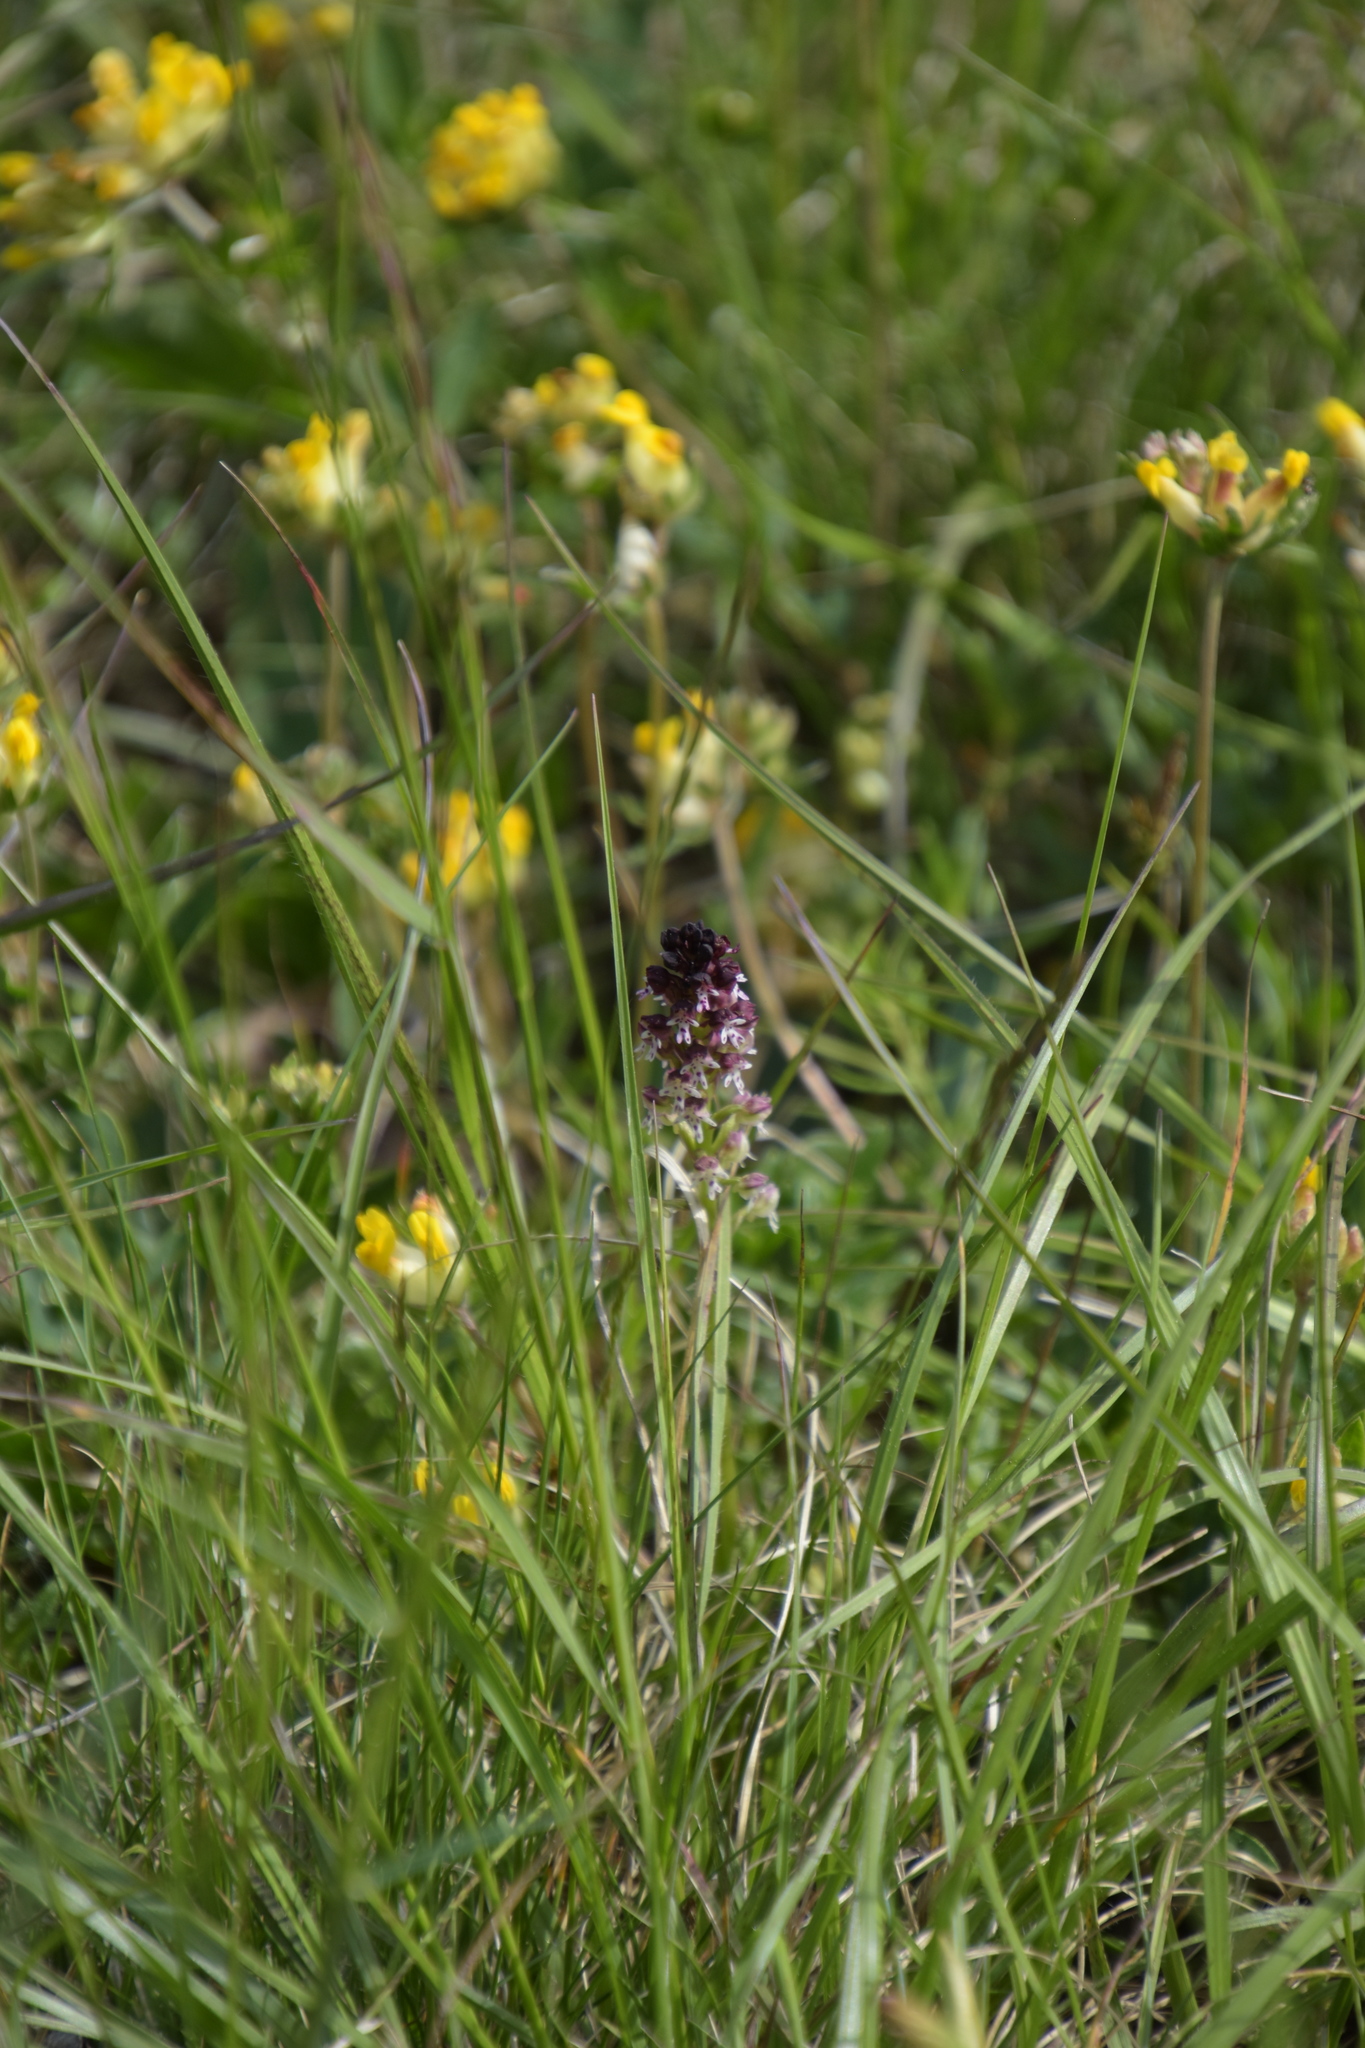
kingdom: Plantae
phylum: Tracheophyta
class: Liliopsida
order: Asparagales
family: Orchidaceae
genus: Neotinea
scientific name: Neotinea ustulata
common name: Burnt orchid
